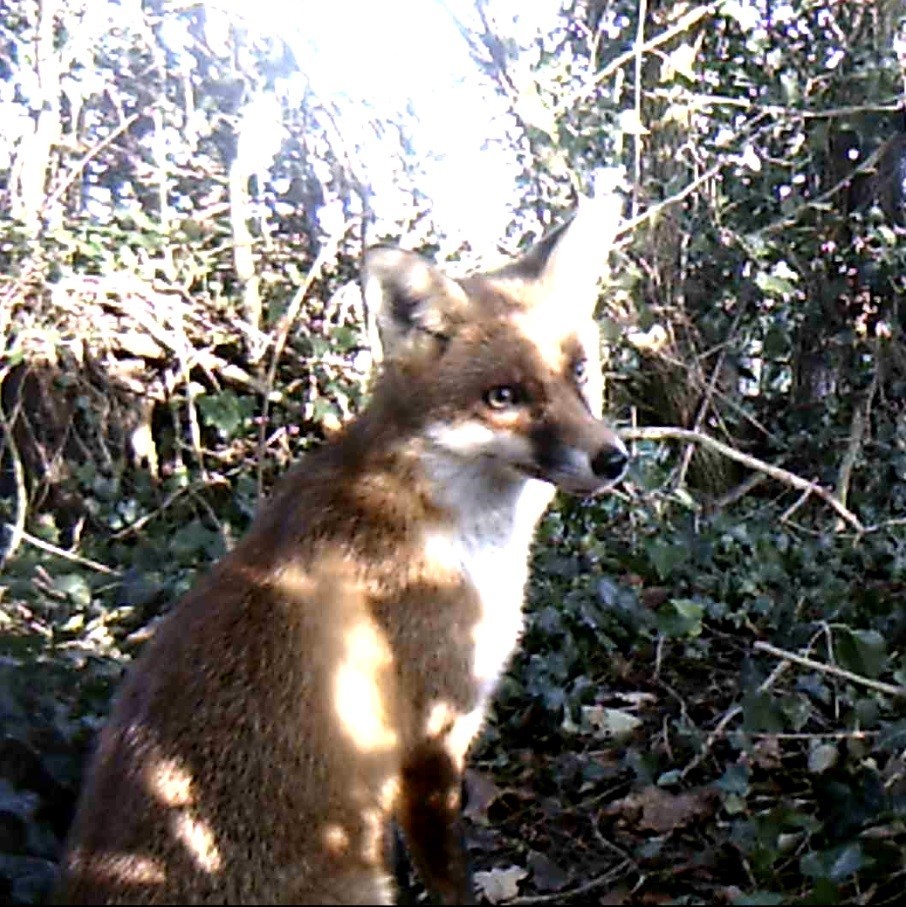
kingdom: Animalia
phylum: Chordata
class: Mammalia
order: Carnivora
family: Canidae
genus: Vulpes
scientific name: Vulpes vulpes
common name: Red fox
